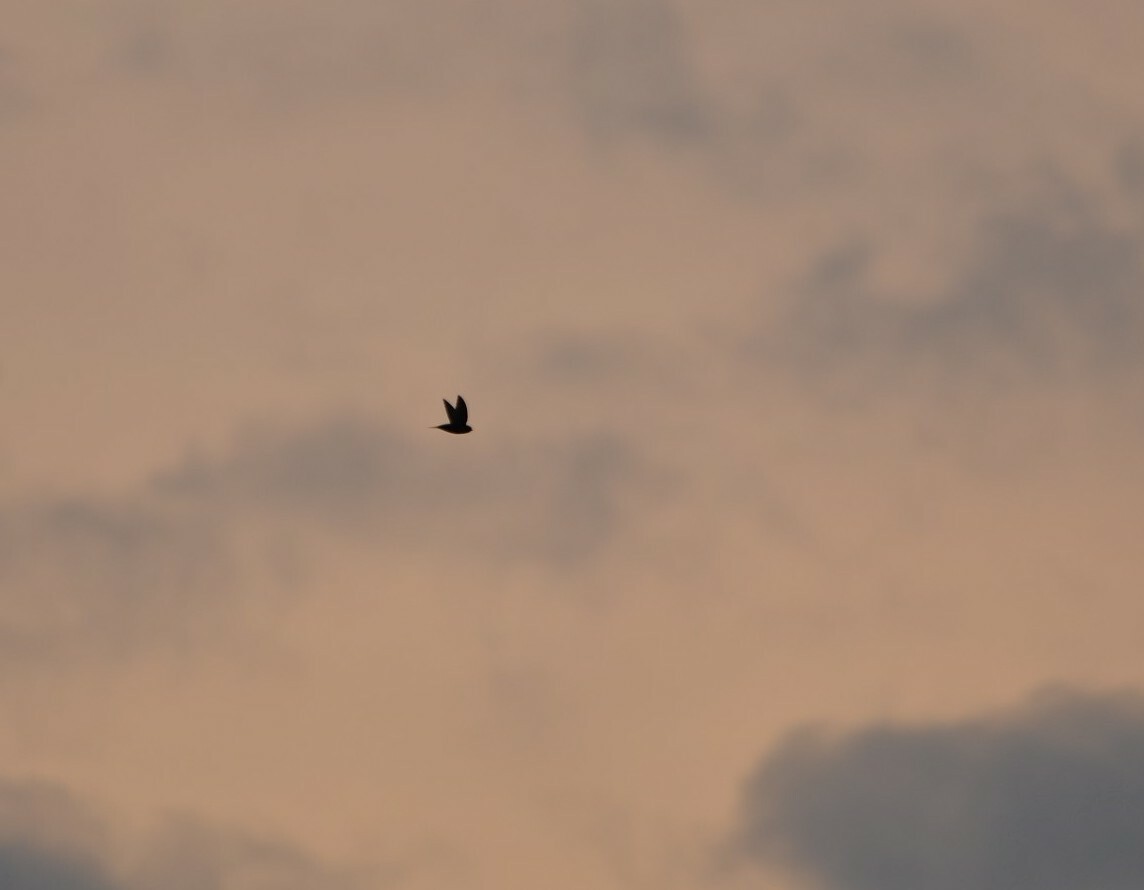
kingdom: Animalia
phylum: Chordata
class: Aves
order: Apodiformes
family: Apodidae
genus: Apus
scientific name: Apus apus
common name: Common swift
